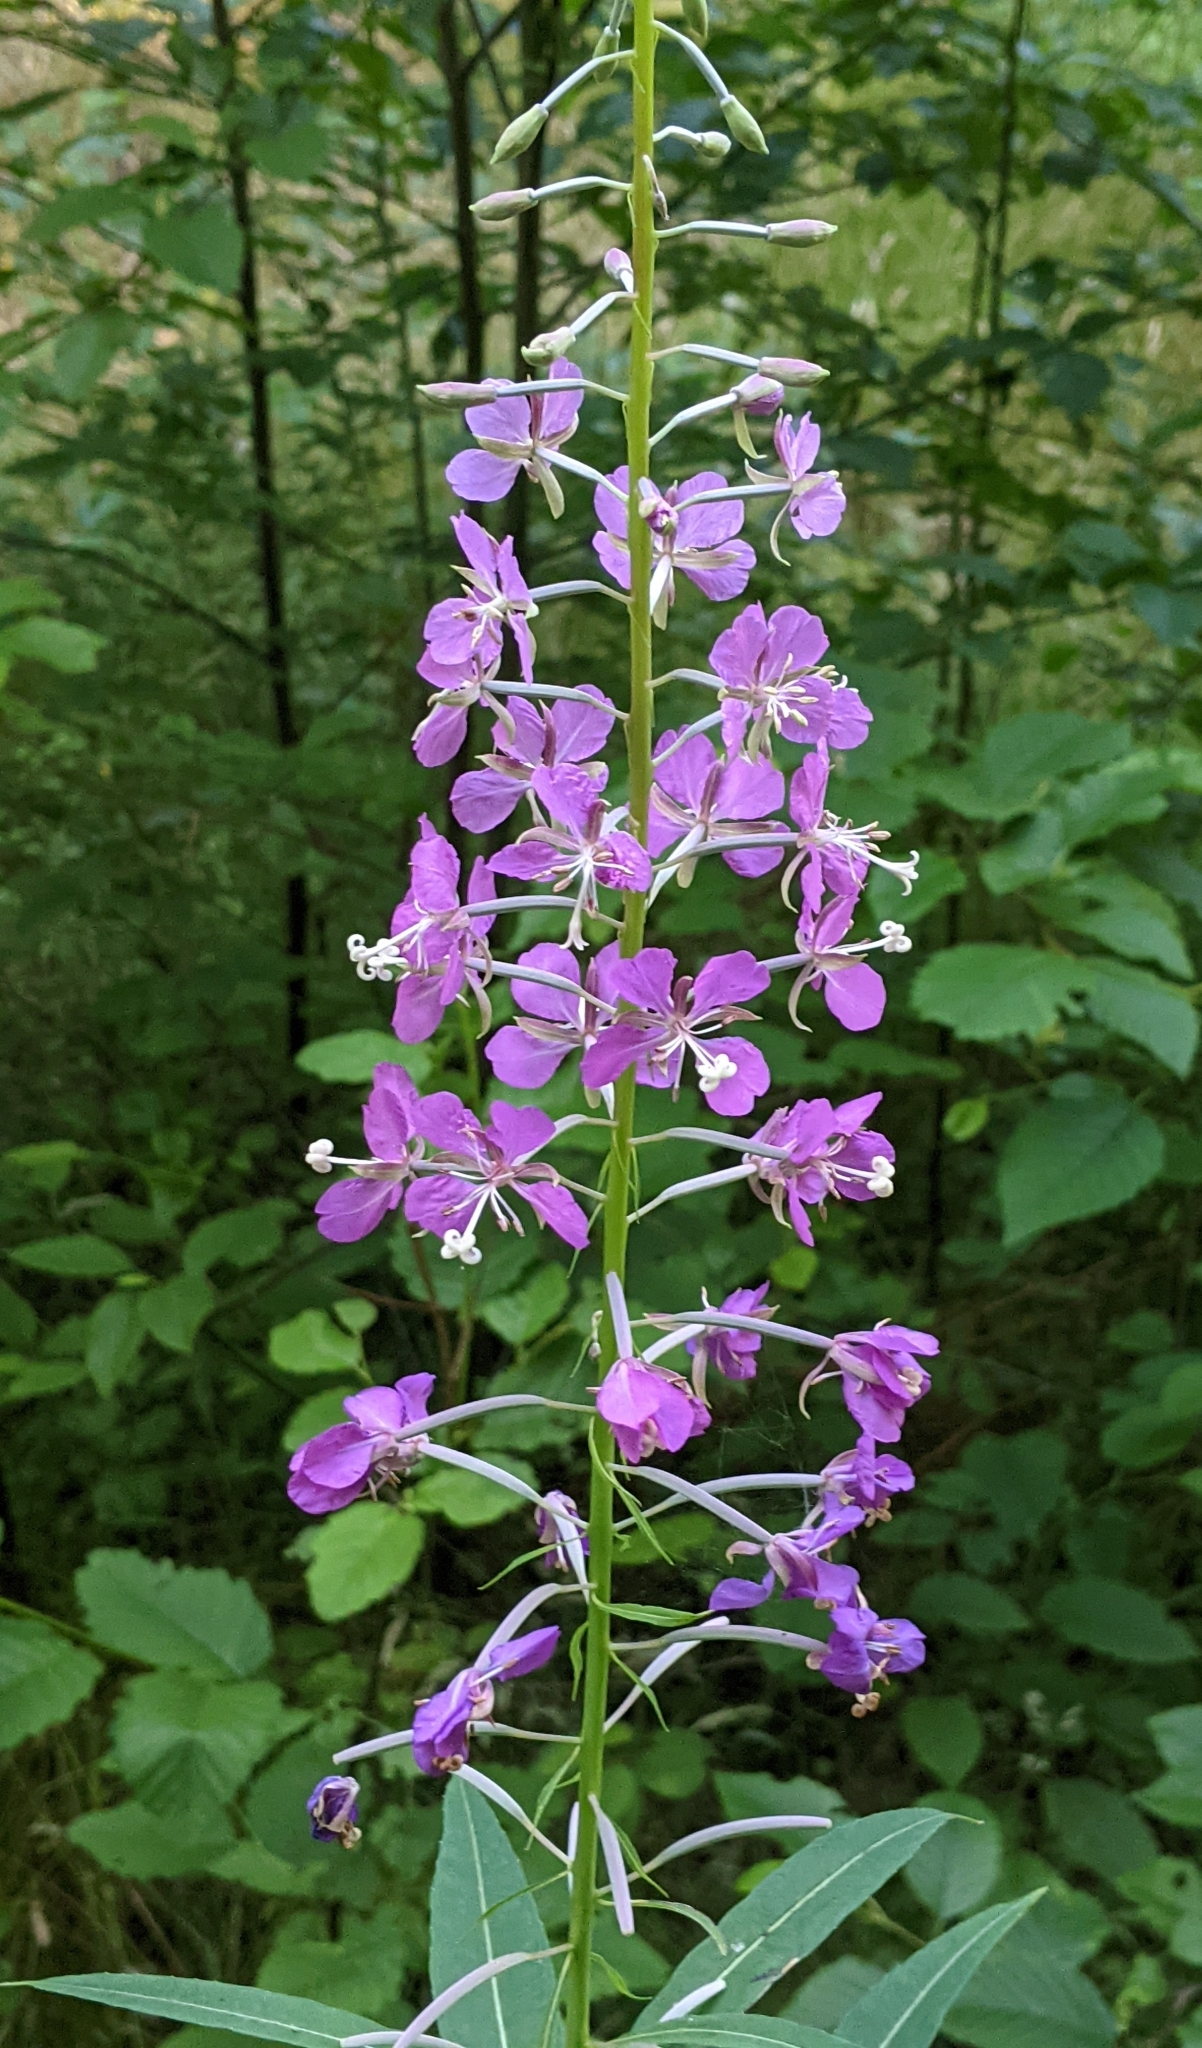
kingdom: Plantae
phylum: Tracheophyta
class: Magnoliopsida
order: Myrtales
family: Onagraceae
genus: Chamaenerion
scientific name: Chamaenerion angustifolium
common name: Fireweed
